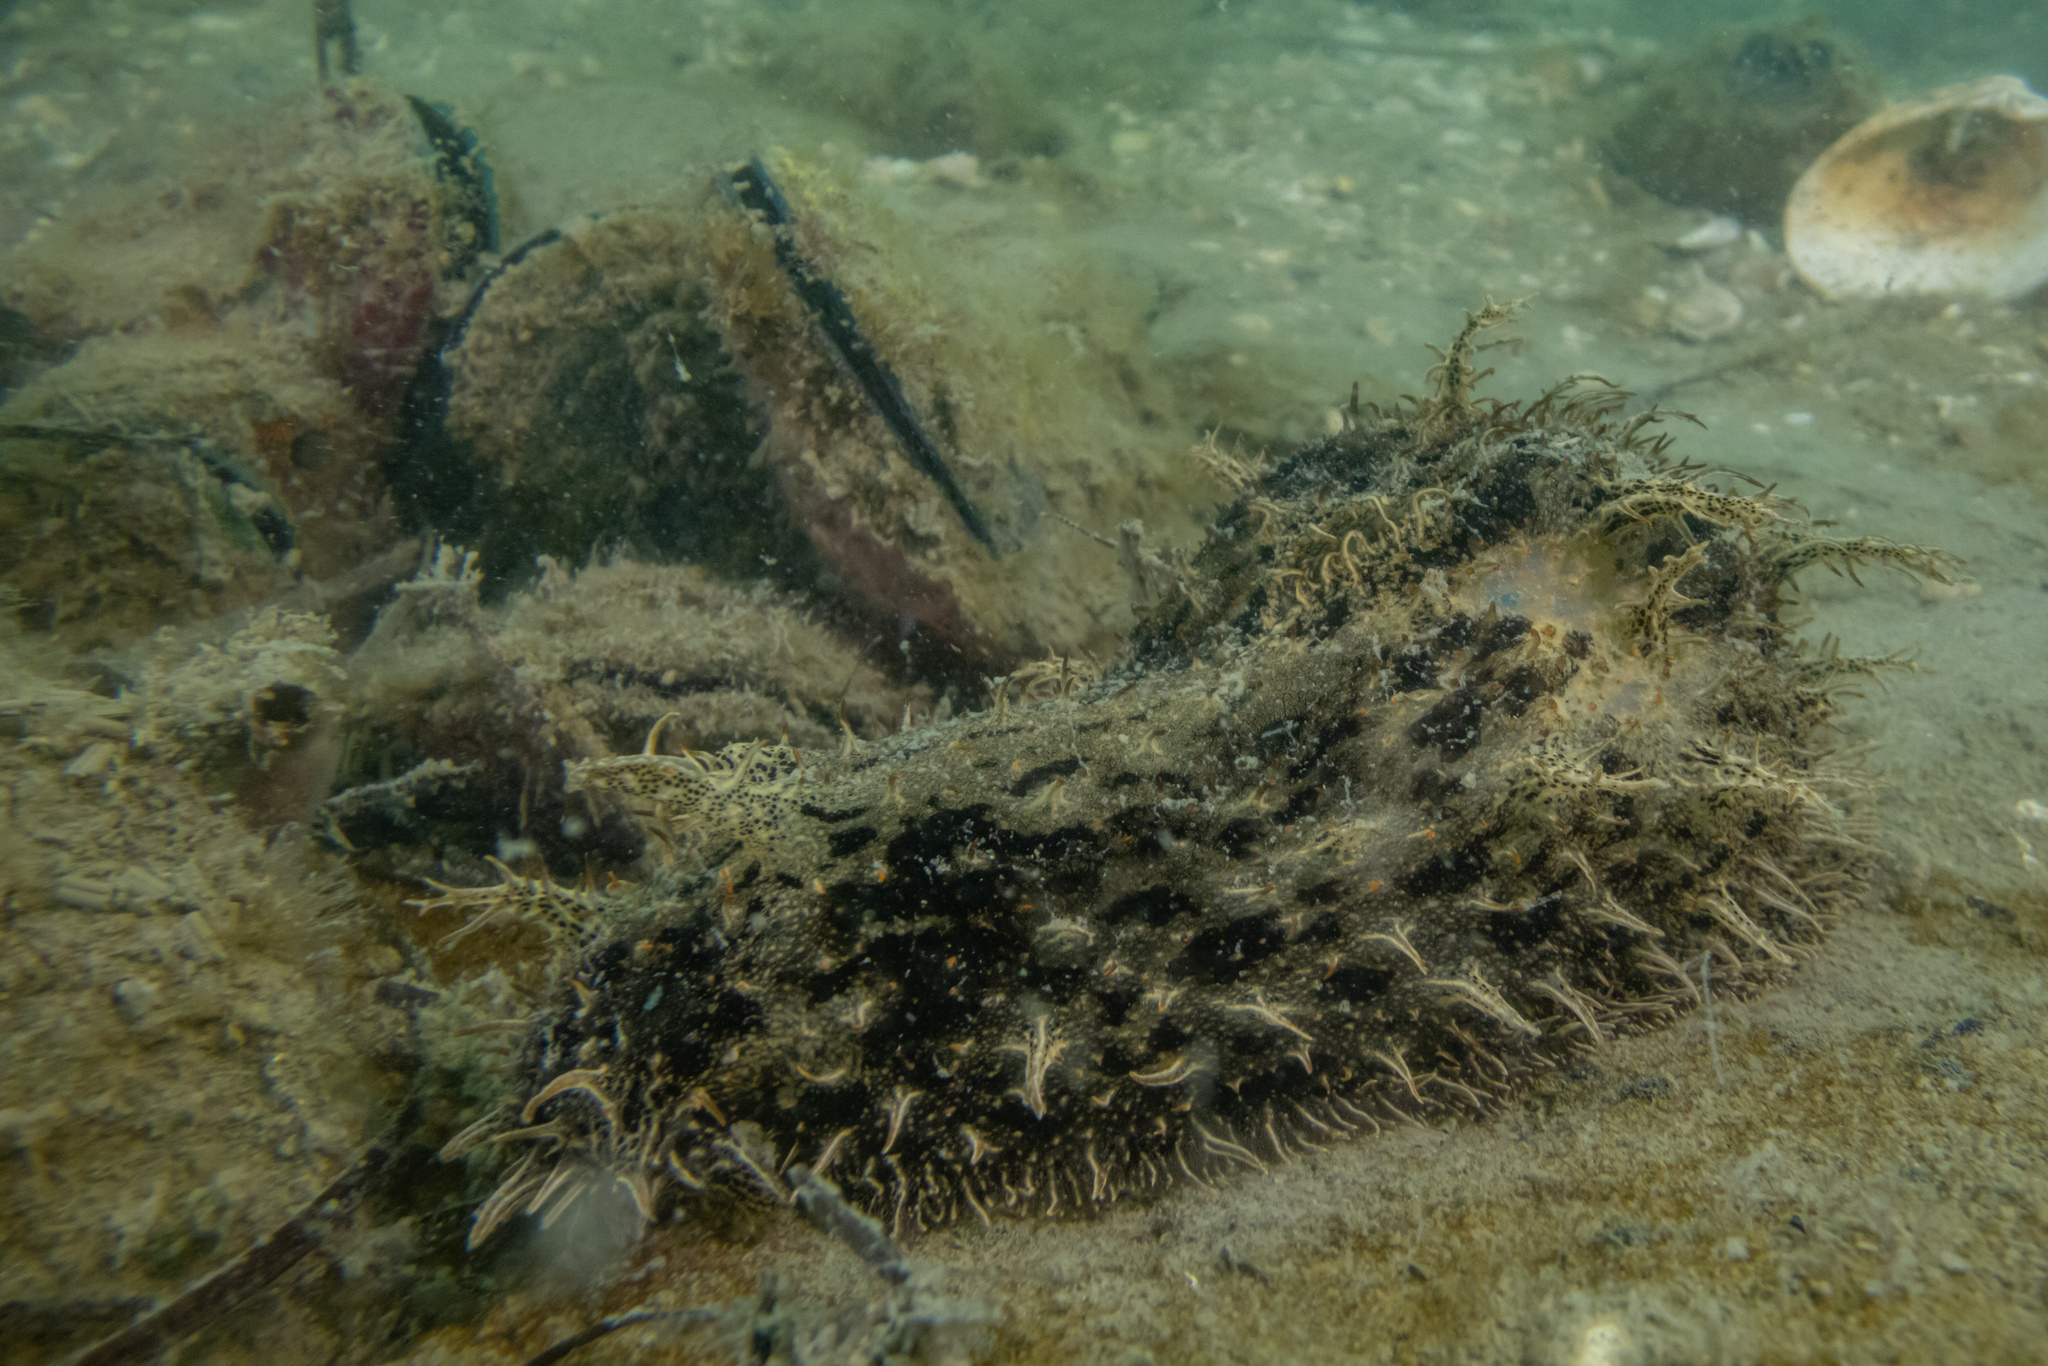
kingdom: Animalia
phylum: Mollusca
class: Gastropoda
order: Aplysiida
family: Aplysiidae
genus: Bursatella
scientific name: Bursatella leachii
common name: Shaggy sea hare
